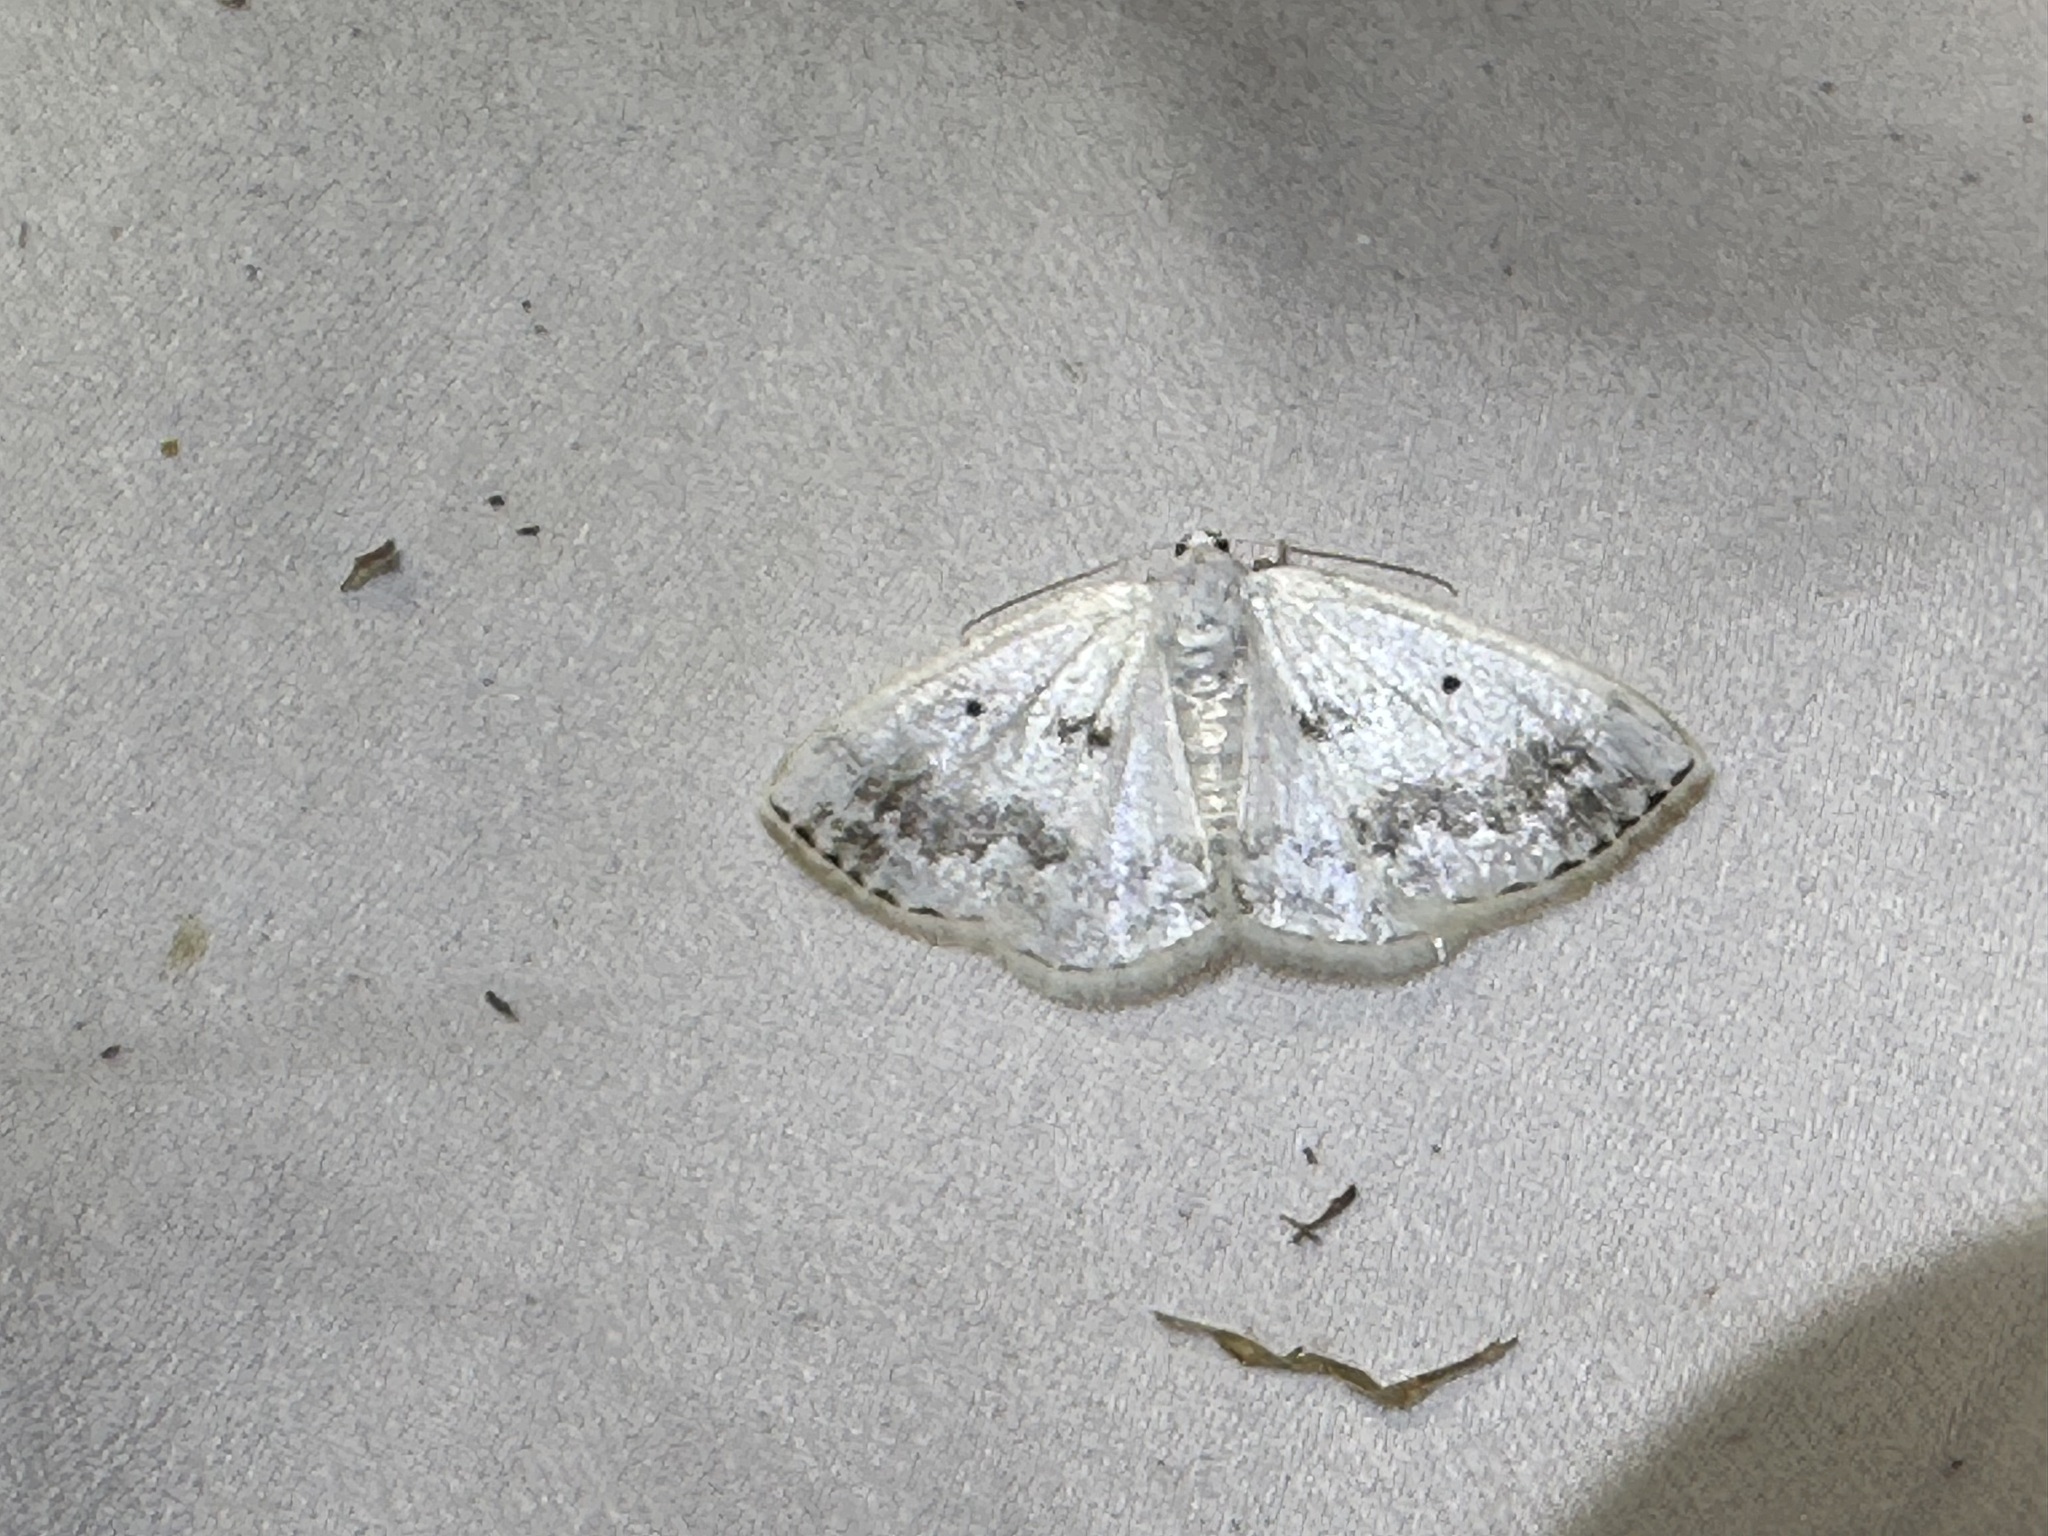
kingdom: Animalia
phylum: Arthropoda
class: Insecta
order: Lepidoptera
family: Geometridae
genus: Lomographa
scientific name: Lomographa temerata
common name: Clouded silver
